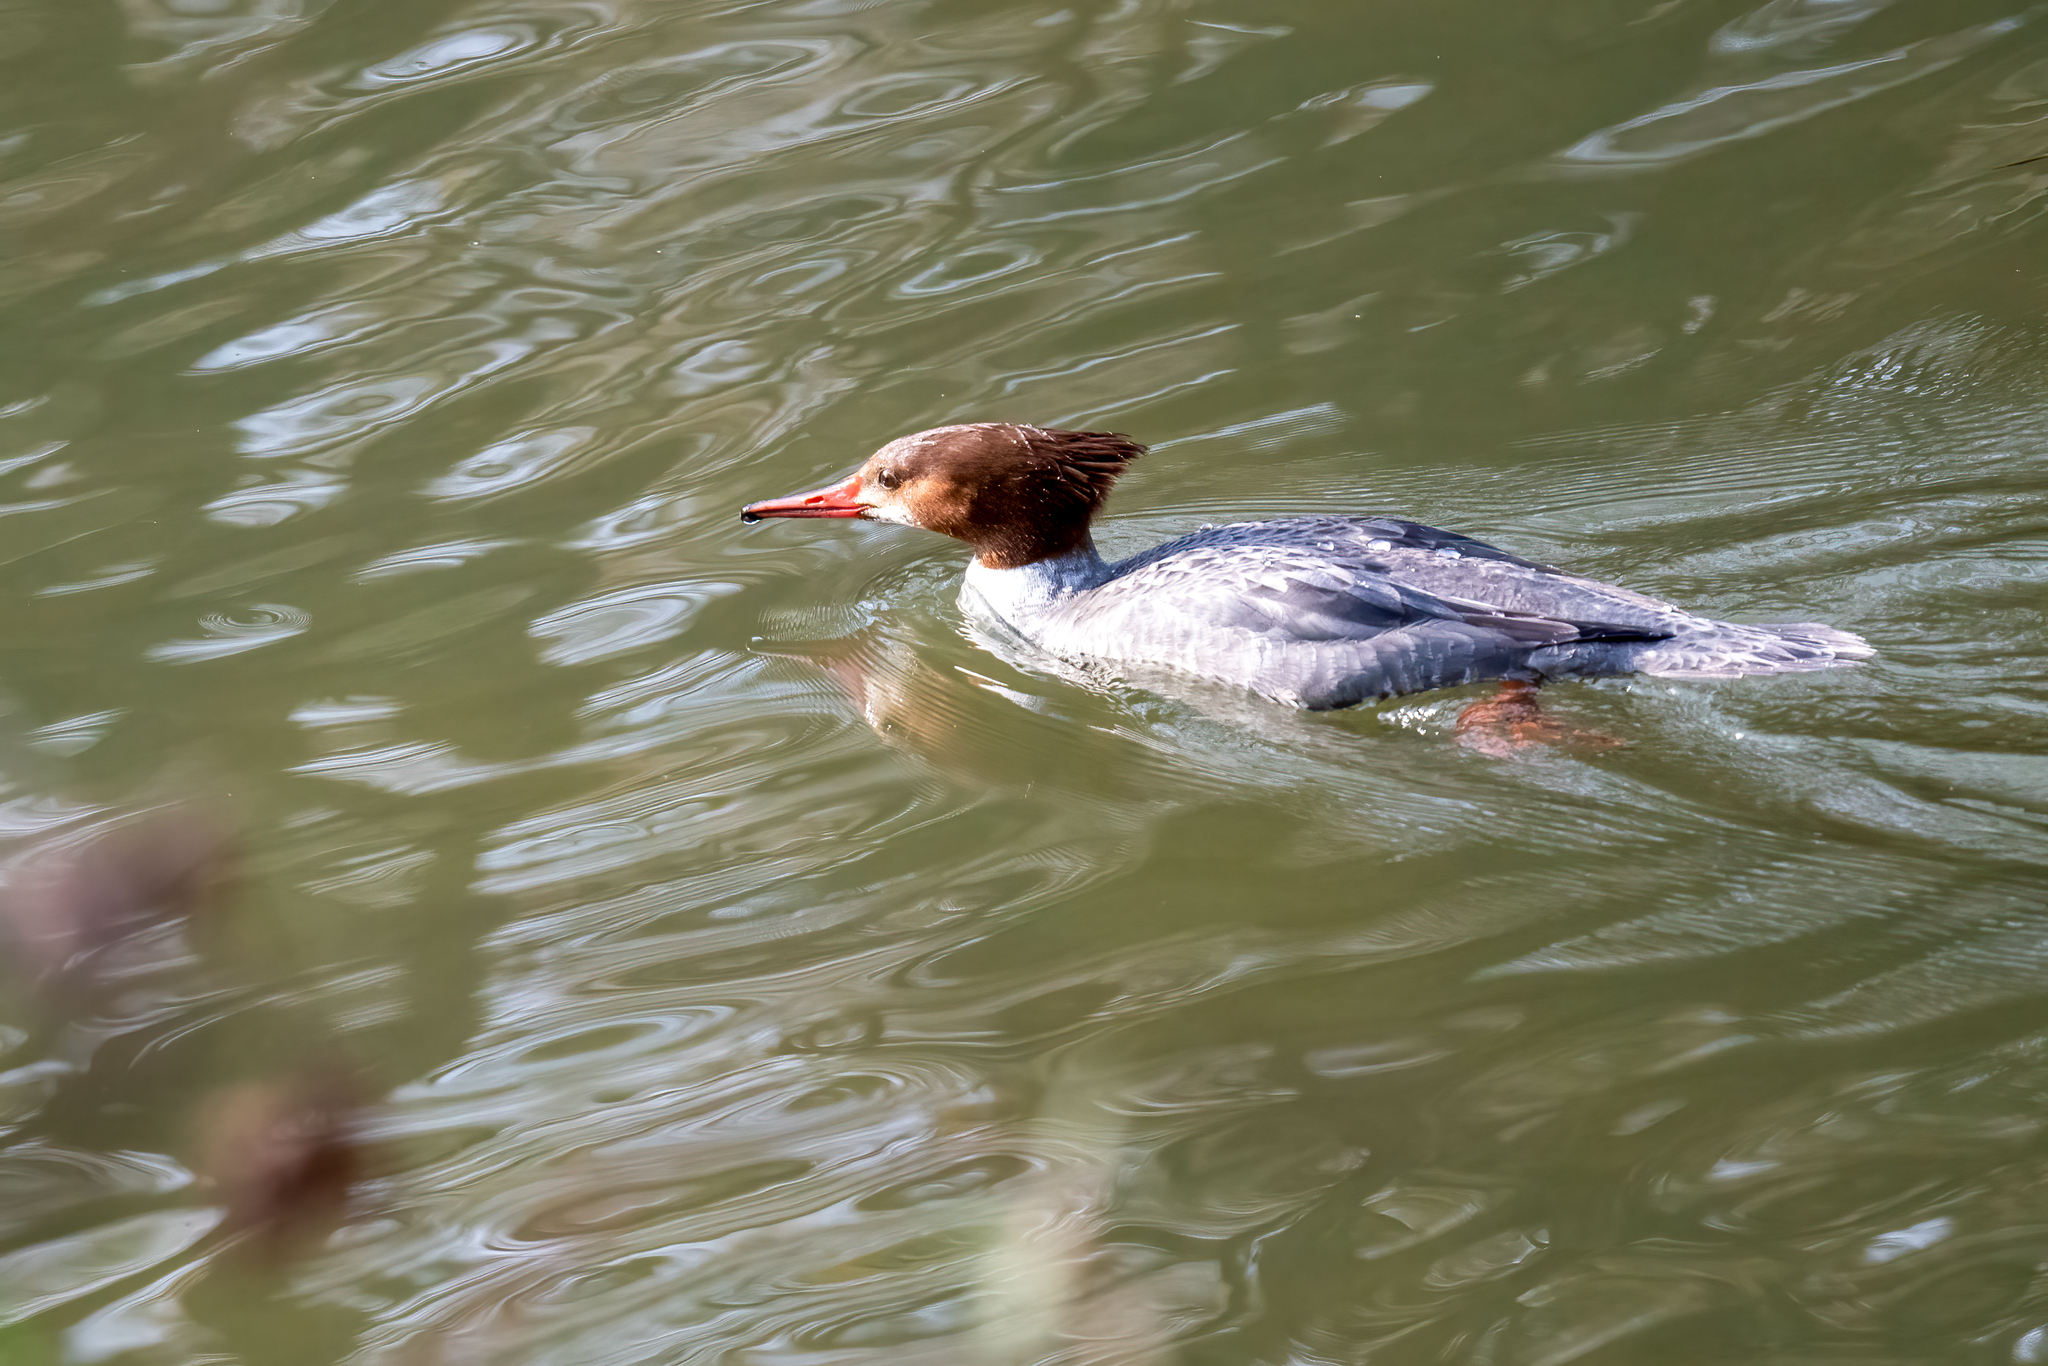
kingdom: Animalia
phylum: Chordata
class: Aves
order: Anseriformes
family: Anatidae
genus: Mergus
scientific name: Mergus merganser
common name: Common merganser
